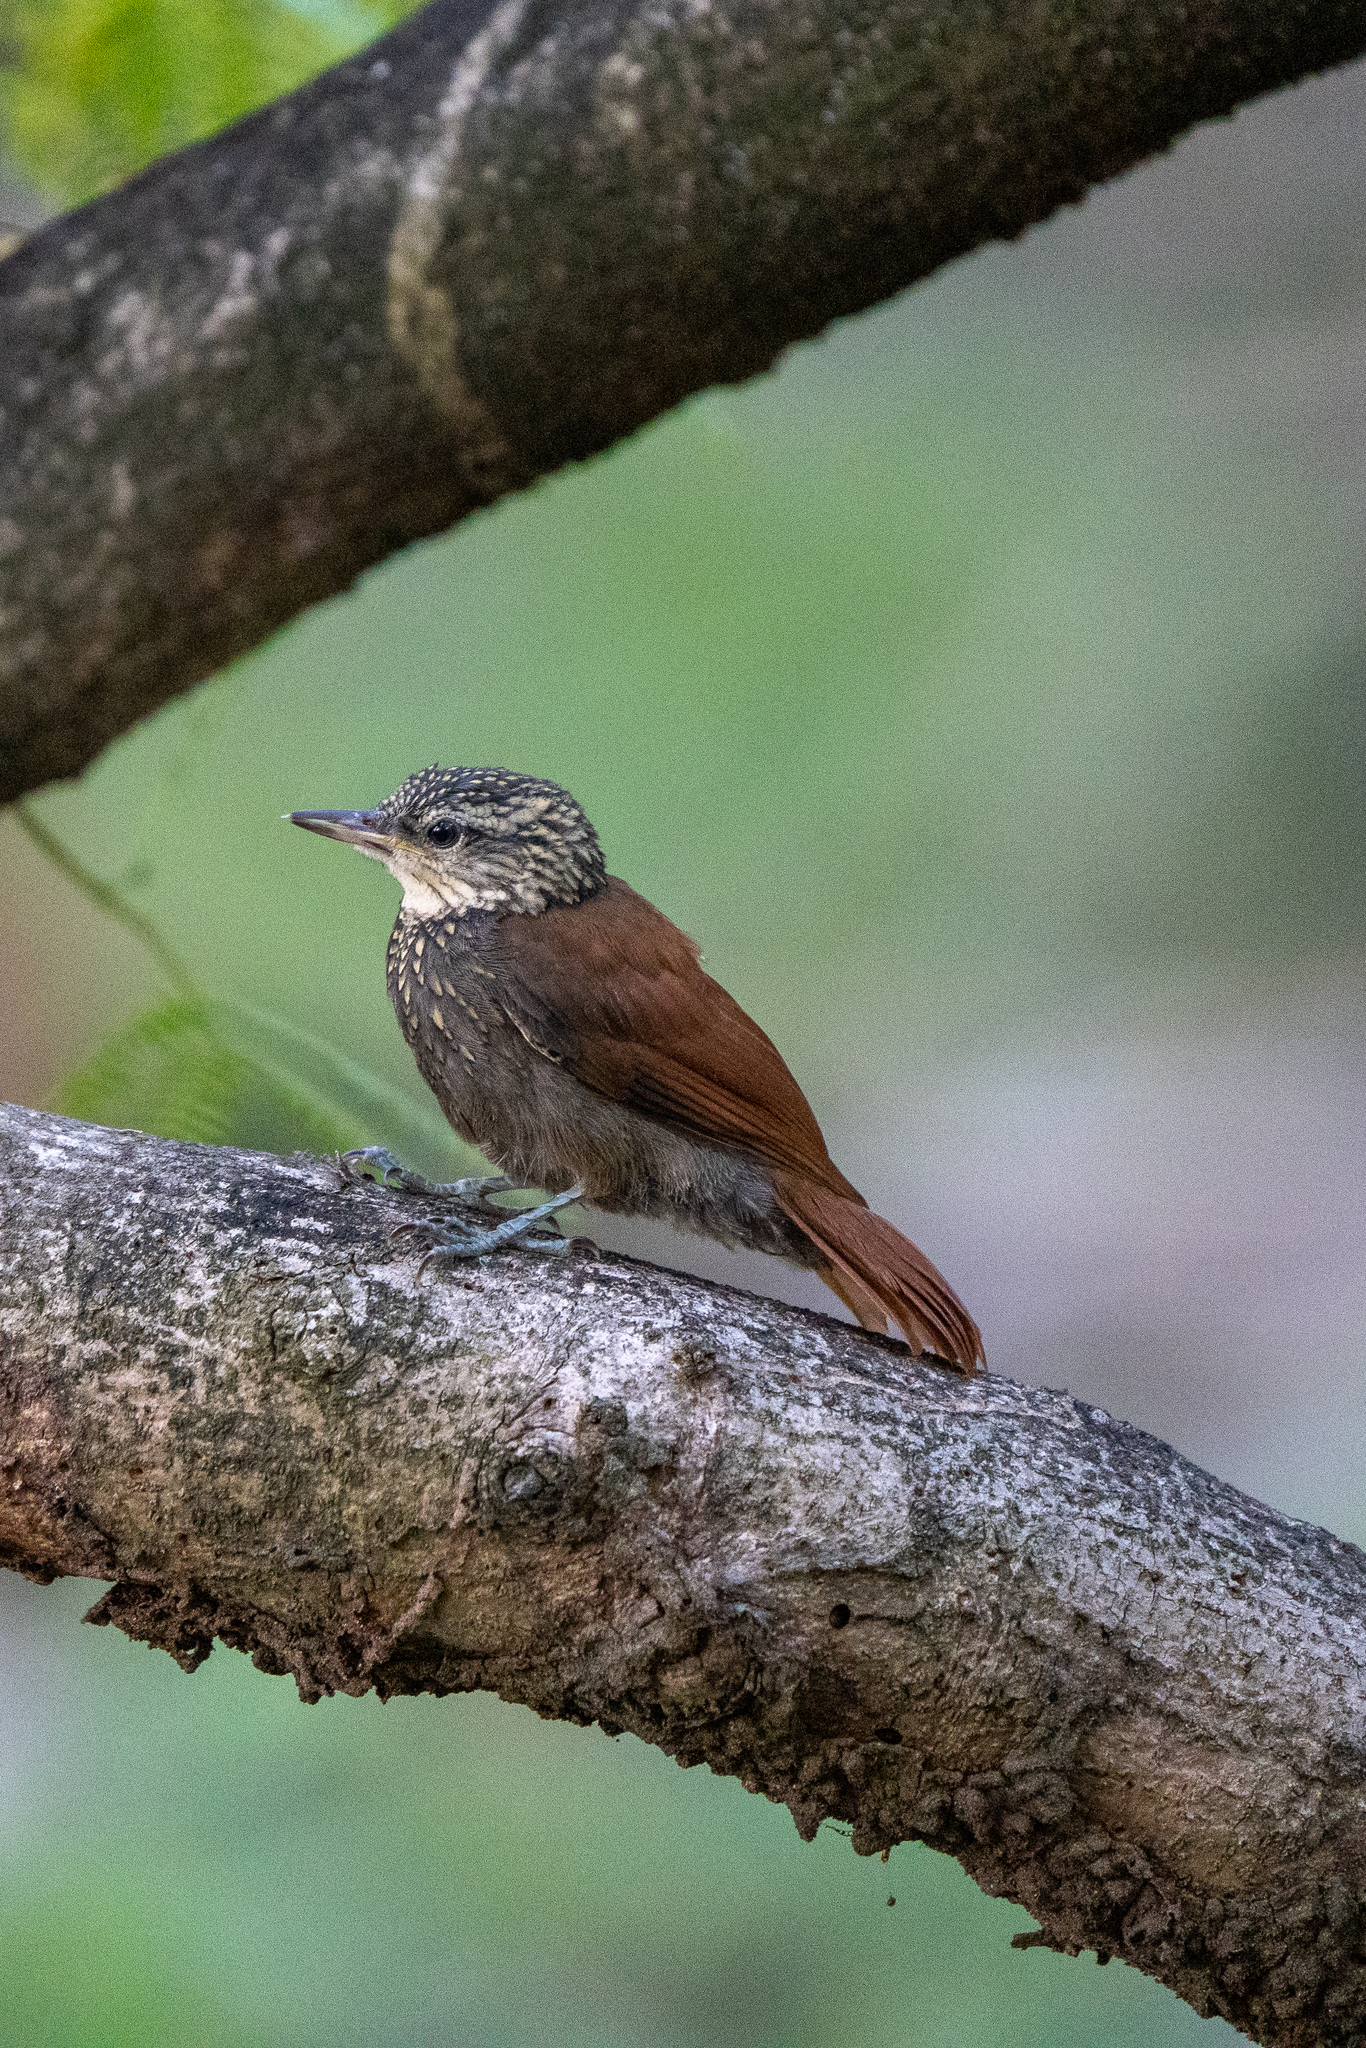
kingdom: Animalia
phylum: Chordata
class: Aves
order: Passeriformes
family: Furnariidae
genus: Xiphorhynchus
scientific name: Xiphorhynchus picus
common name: Straight-billed woodcreeper
